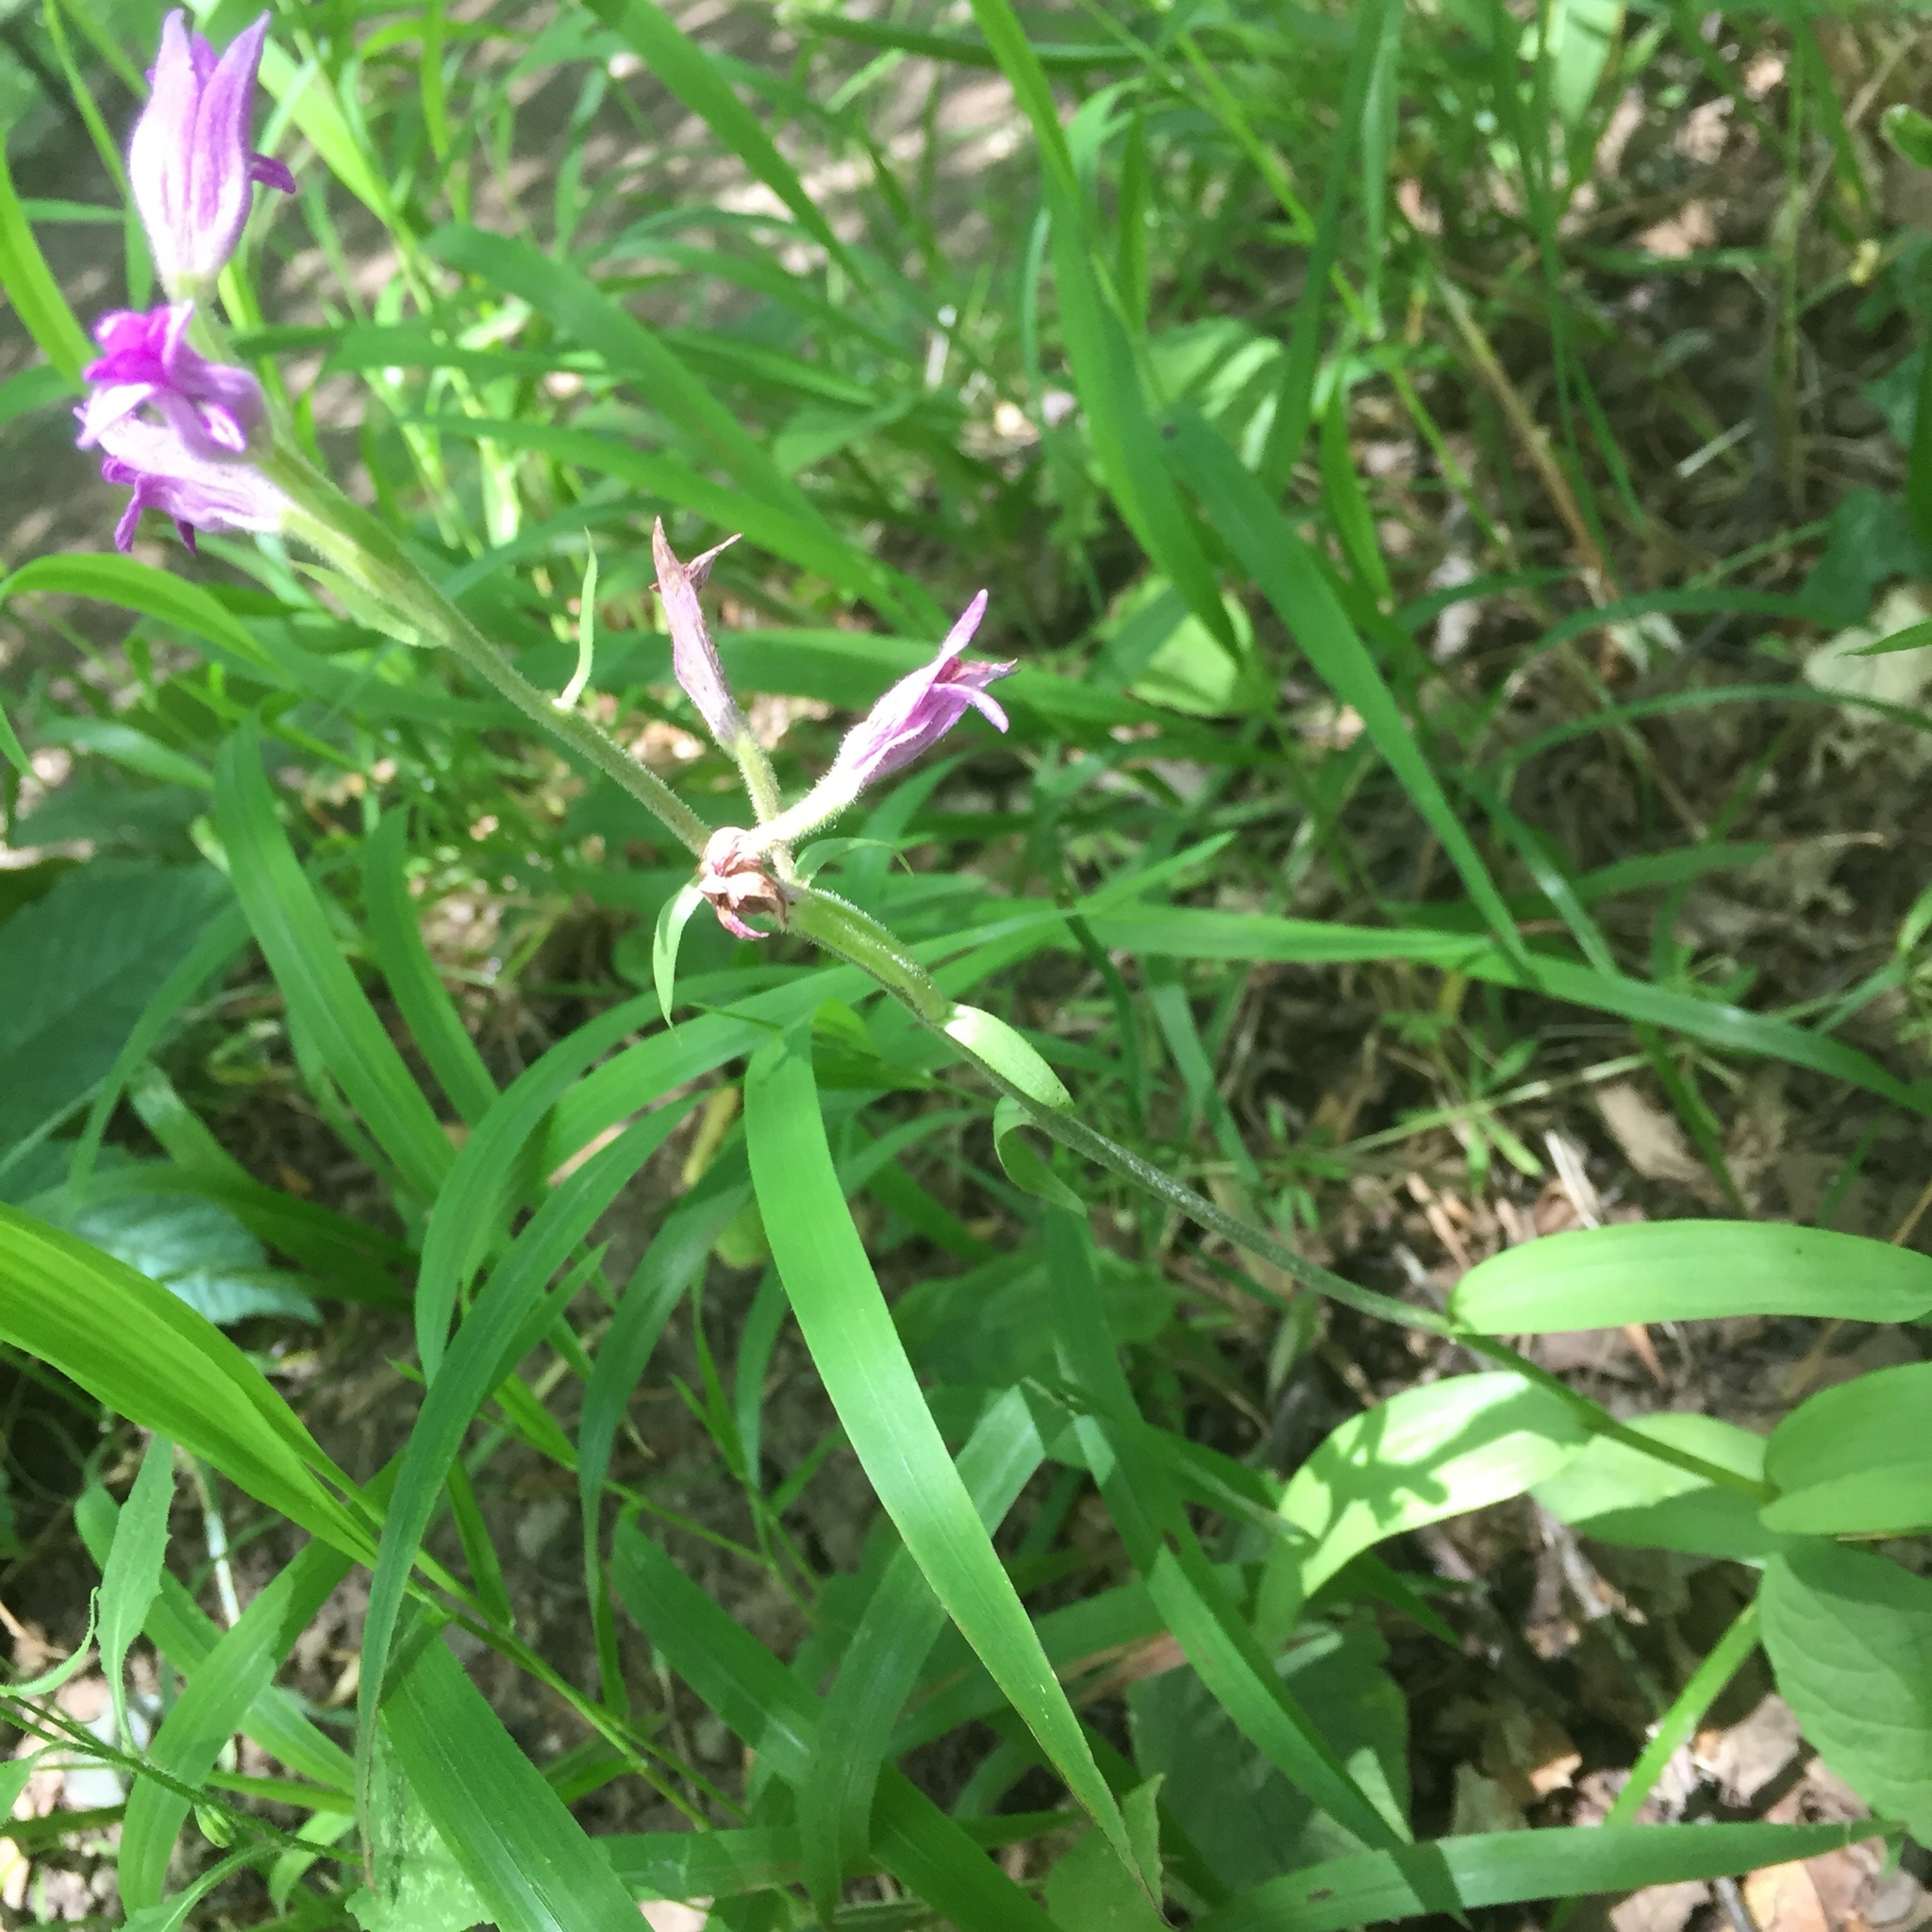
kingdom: Plantae
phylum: Tracheophyta
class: Liliopsida
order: Asparagales
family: Orchidaceae
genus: Cephalanthera
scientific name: Cephalanthera rubra
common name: Red helleborine
